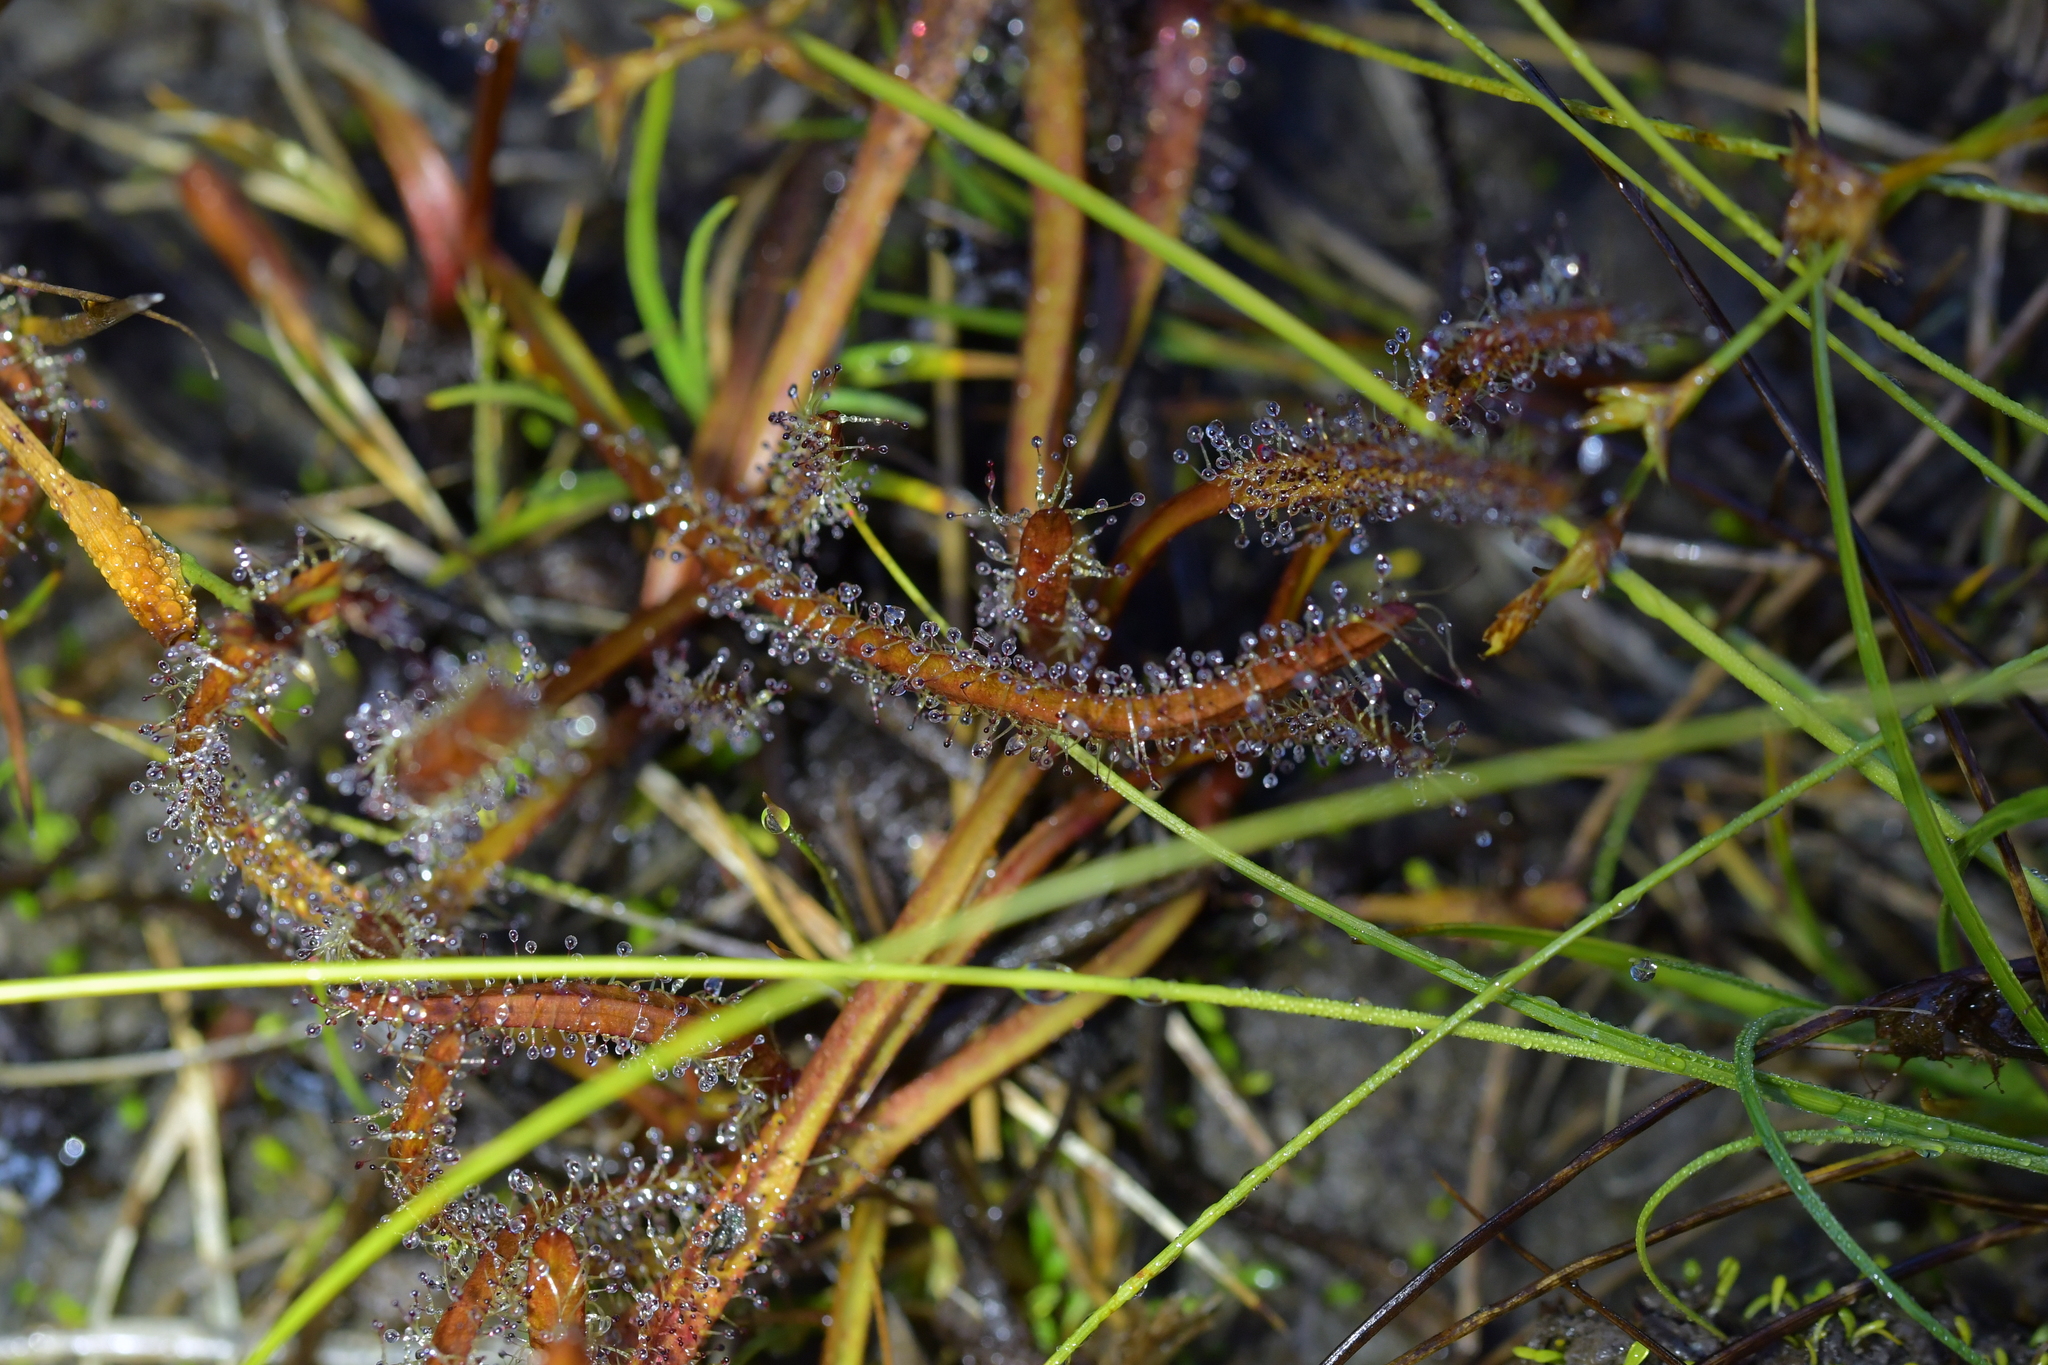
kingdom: Plantae
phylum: Tracheophyta
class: Magnoliopsida
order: Caryophyllales
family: Droseraceae
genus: Drosera
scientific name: Drosera arcturi
